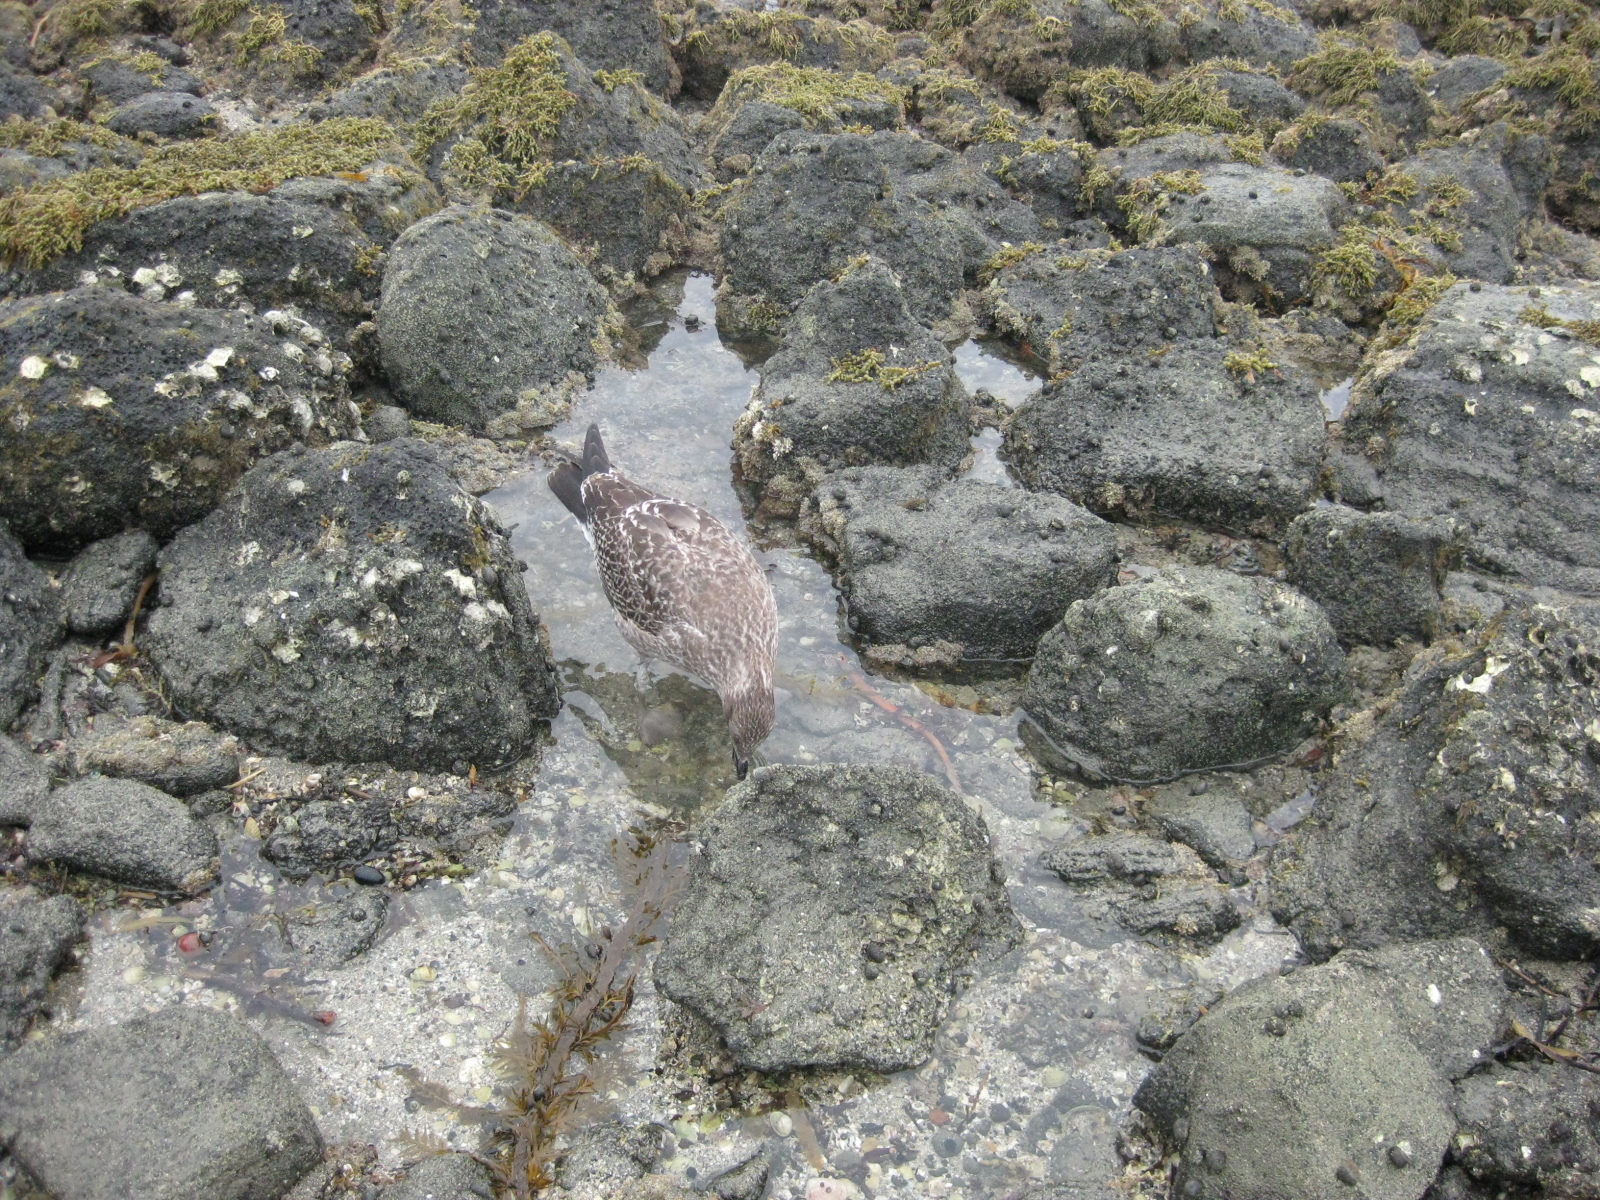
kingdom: Animalia
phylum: Chordata
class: Aves
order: Charadriiformes
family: Laridae
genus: Larus
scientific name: Larus dominicanus
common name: Kelp gull
